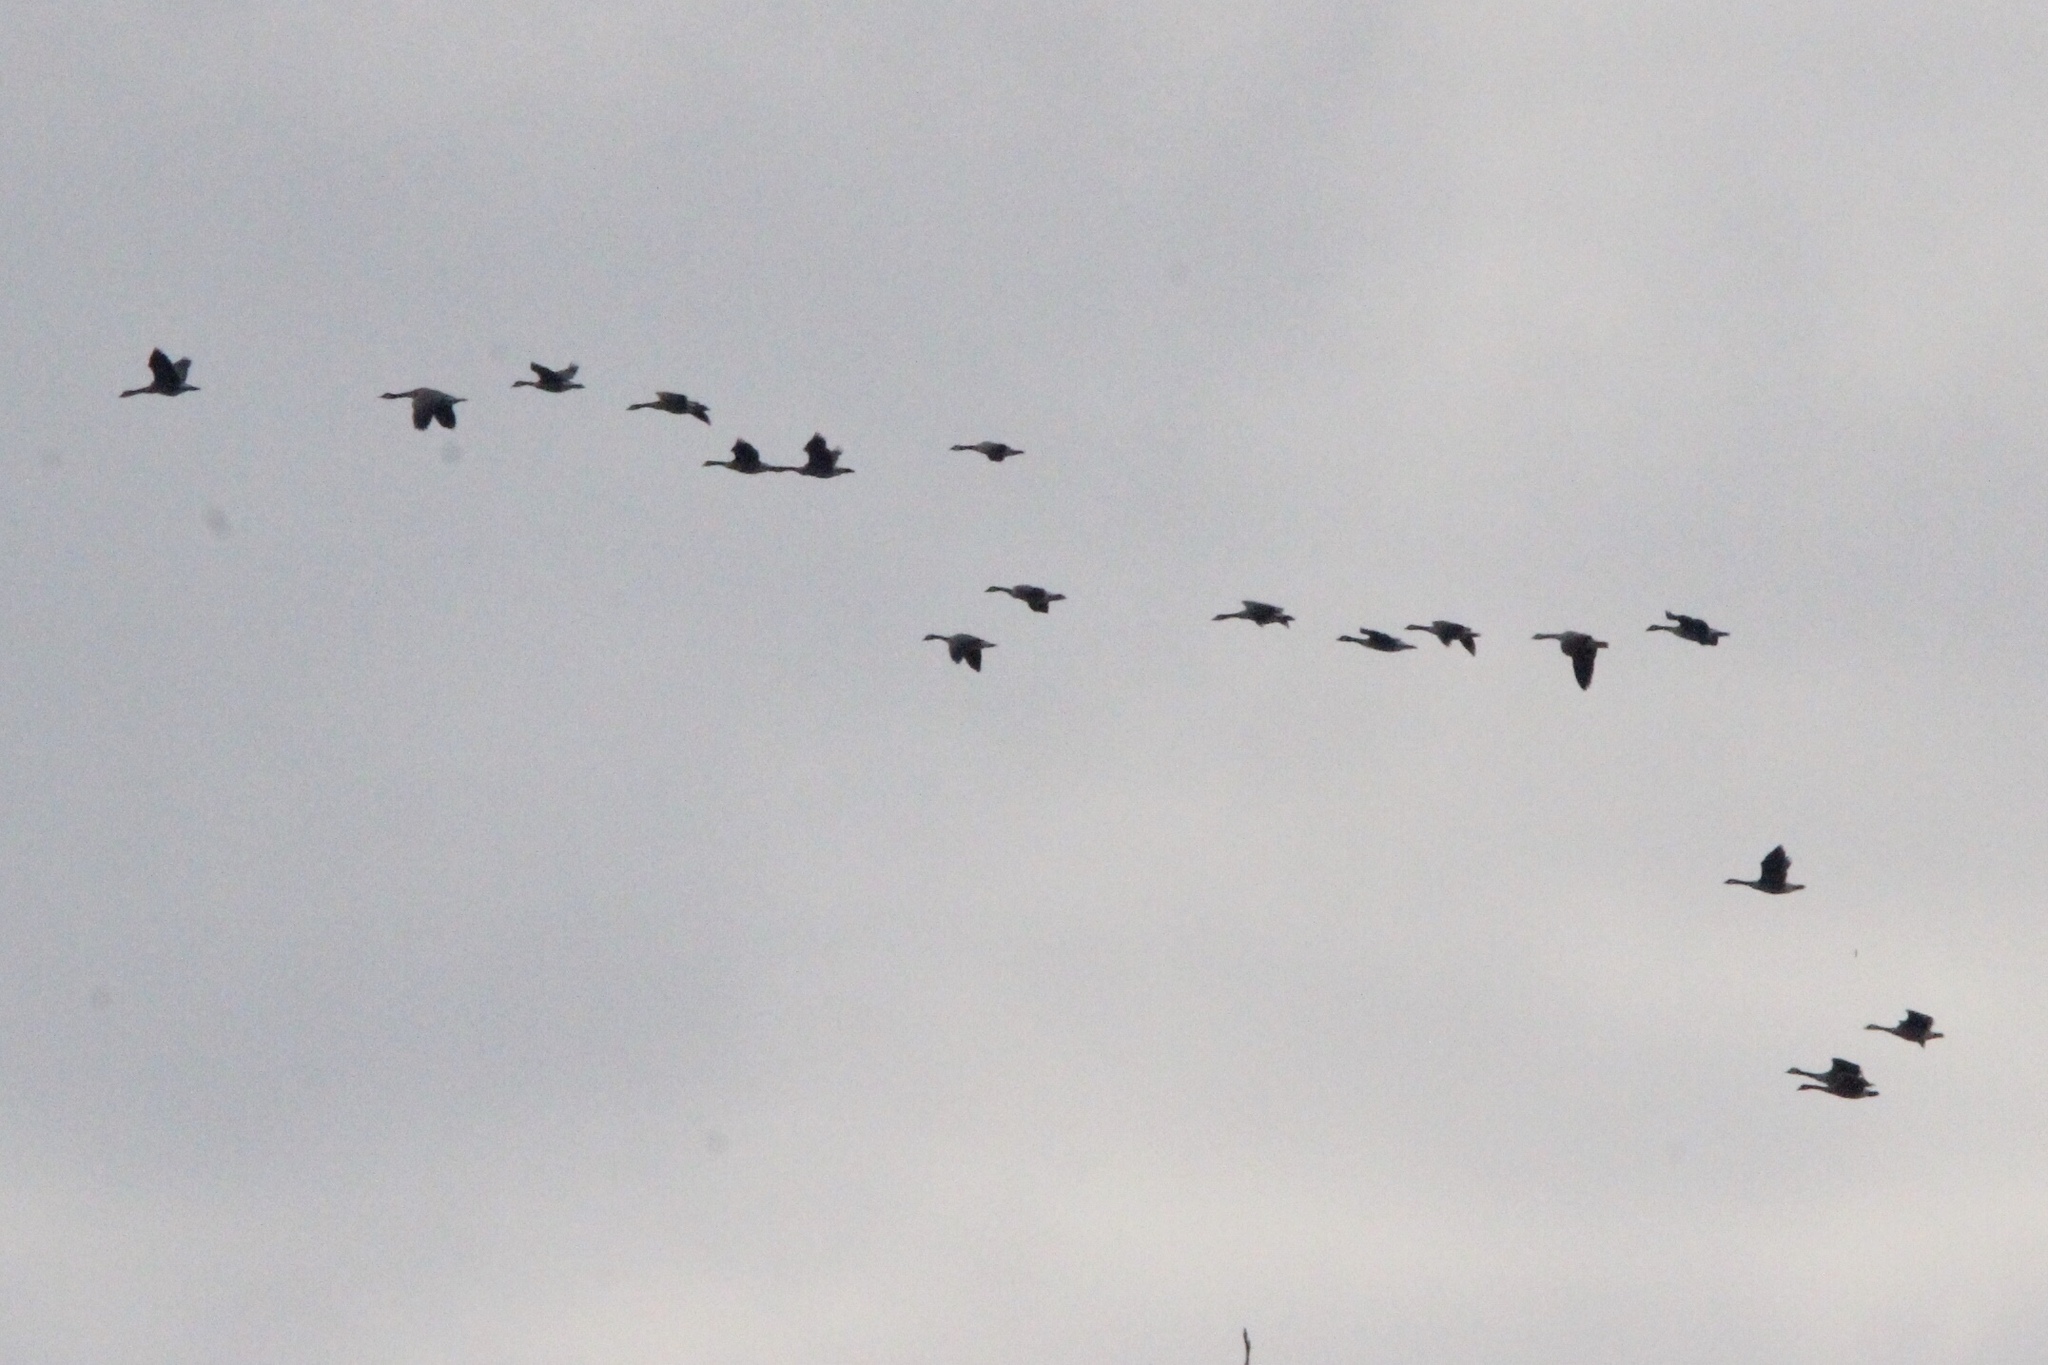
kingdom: Animalia
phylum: Chordata
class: Aves
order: Anseriformes
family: Anatidae
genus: Branta
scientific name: Branta canadensis
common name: Canada goose
